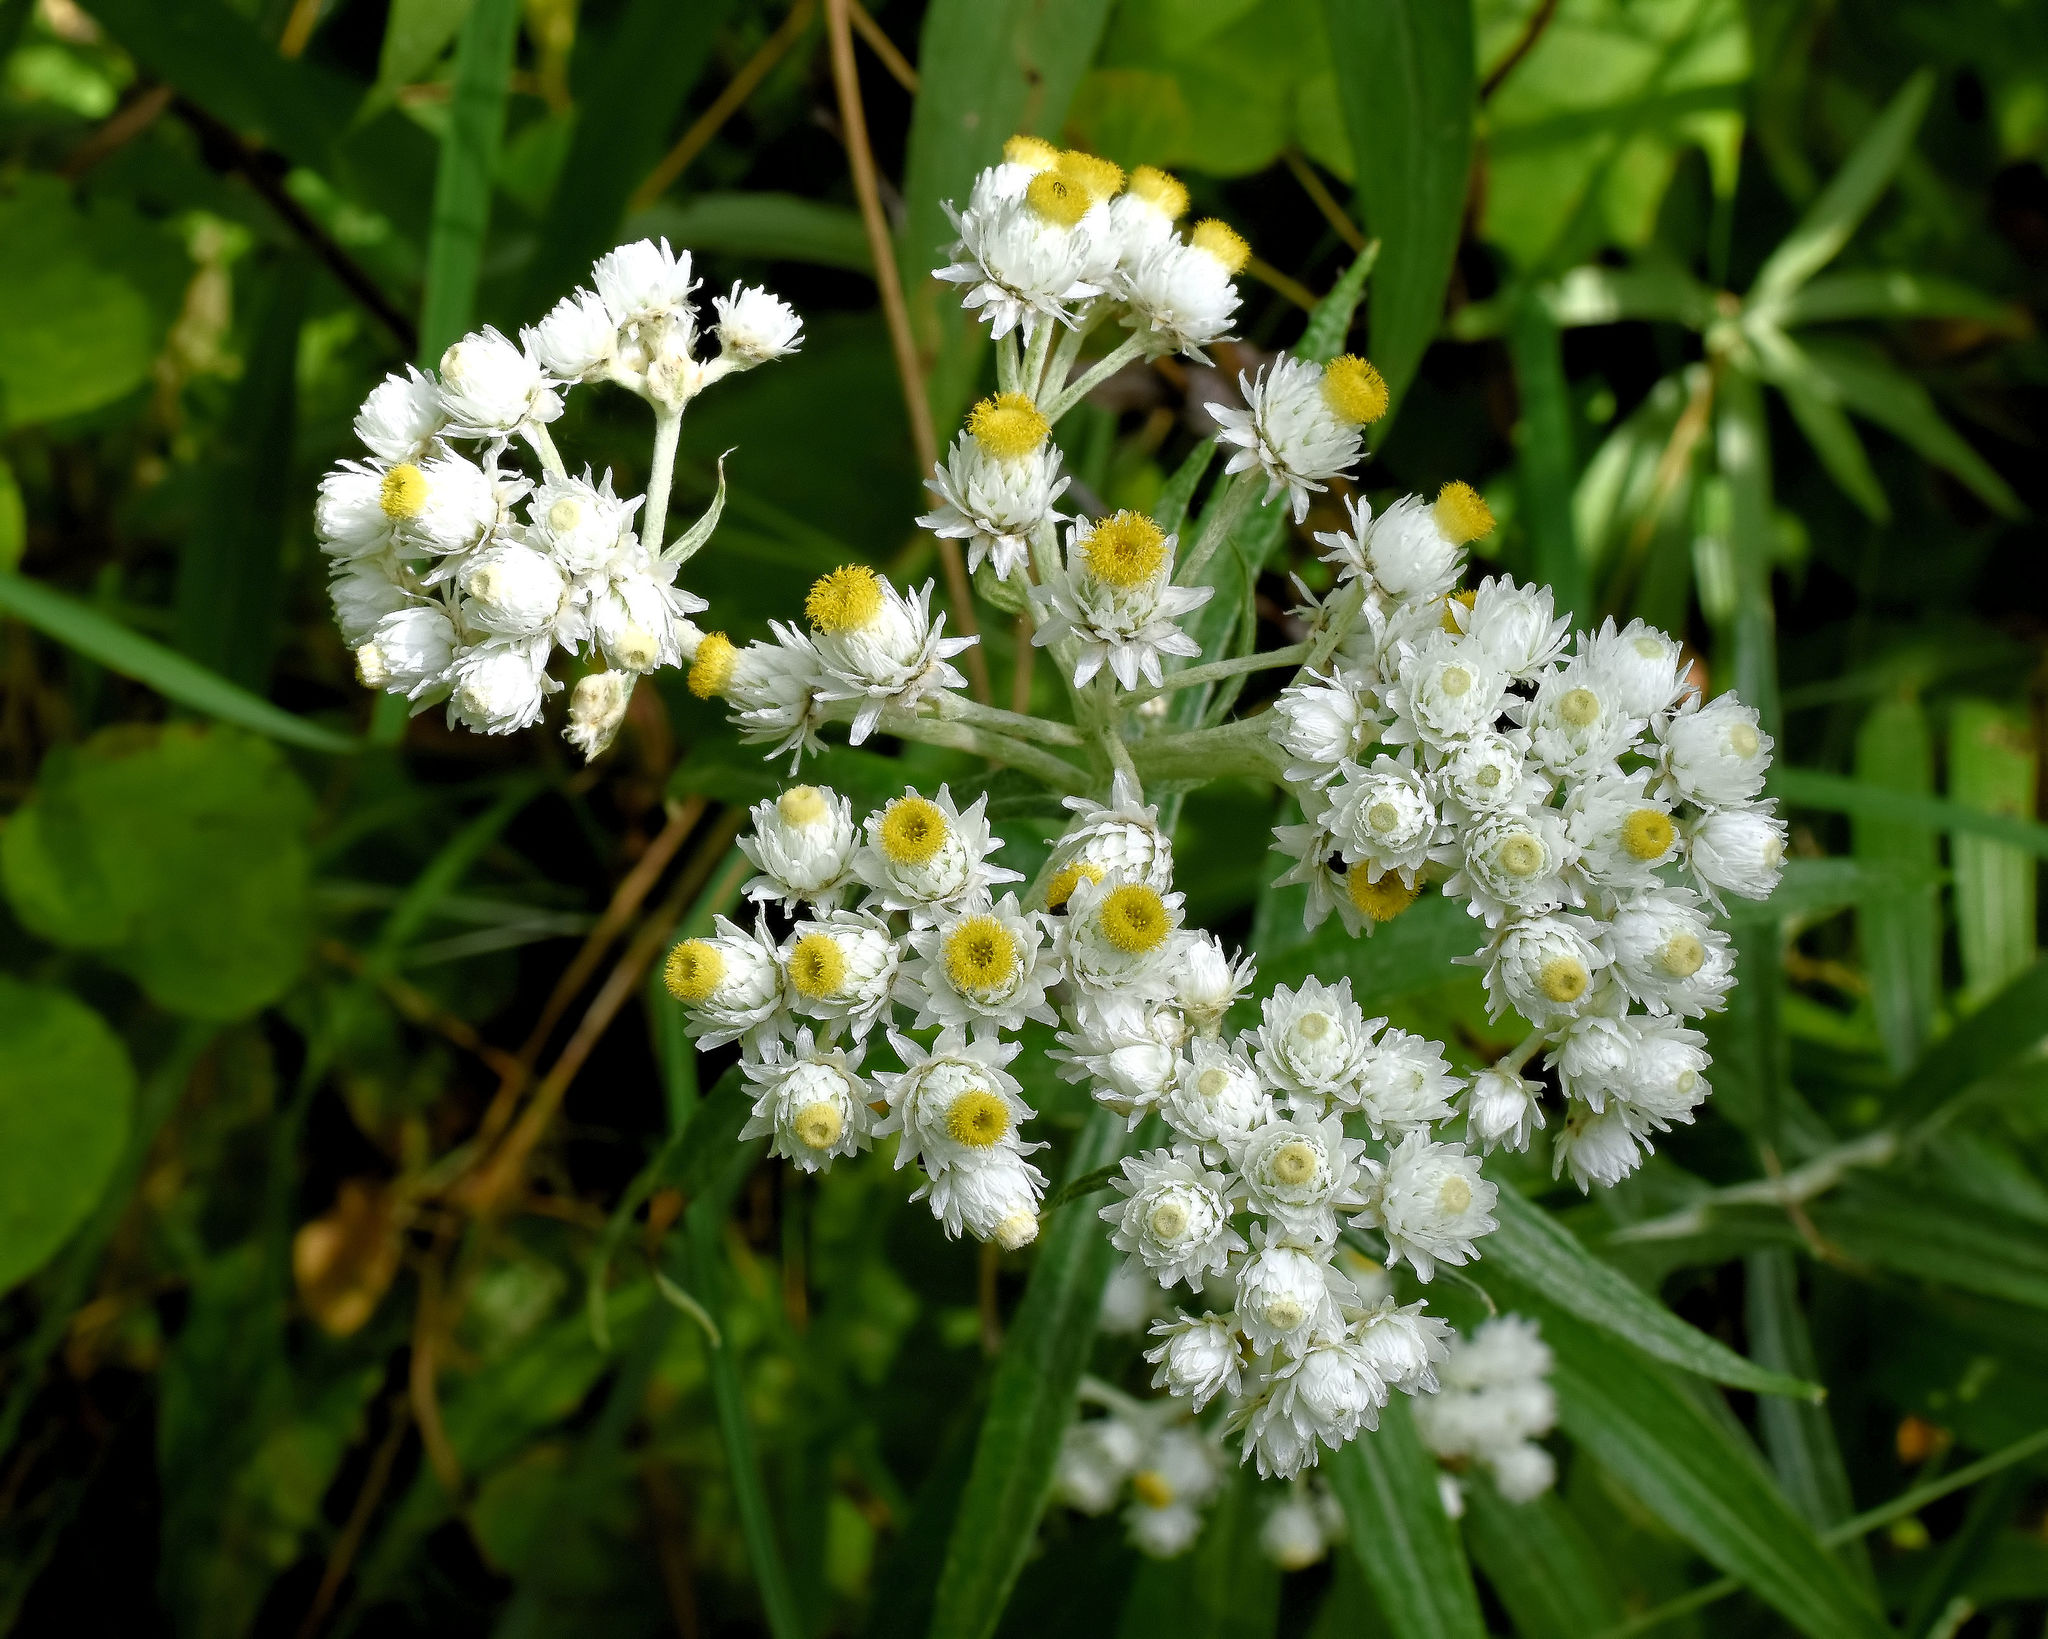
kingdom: Plantae
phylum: Tracheophyta
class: Magnoliopsida
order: Asterales
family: Asteraceae
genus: Anaphalis
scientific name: Anaphalis margaritacea
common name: Pearly everlasting
